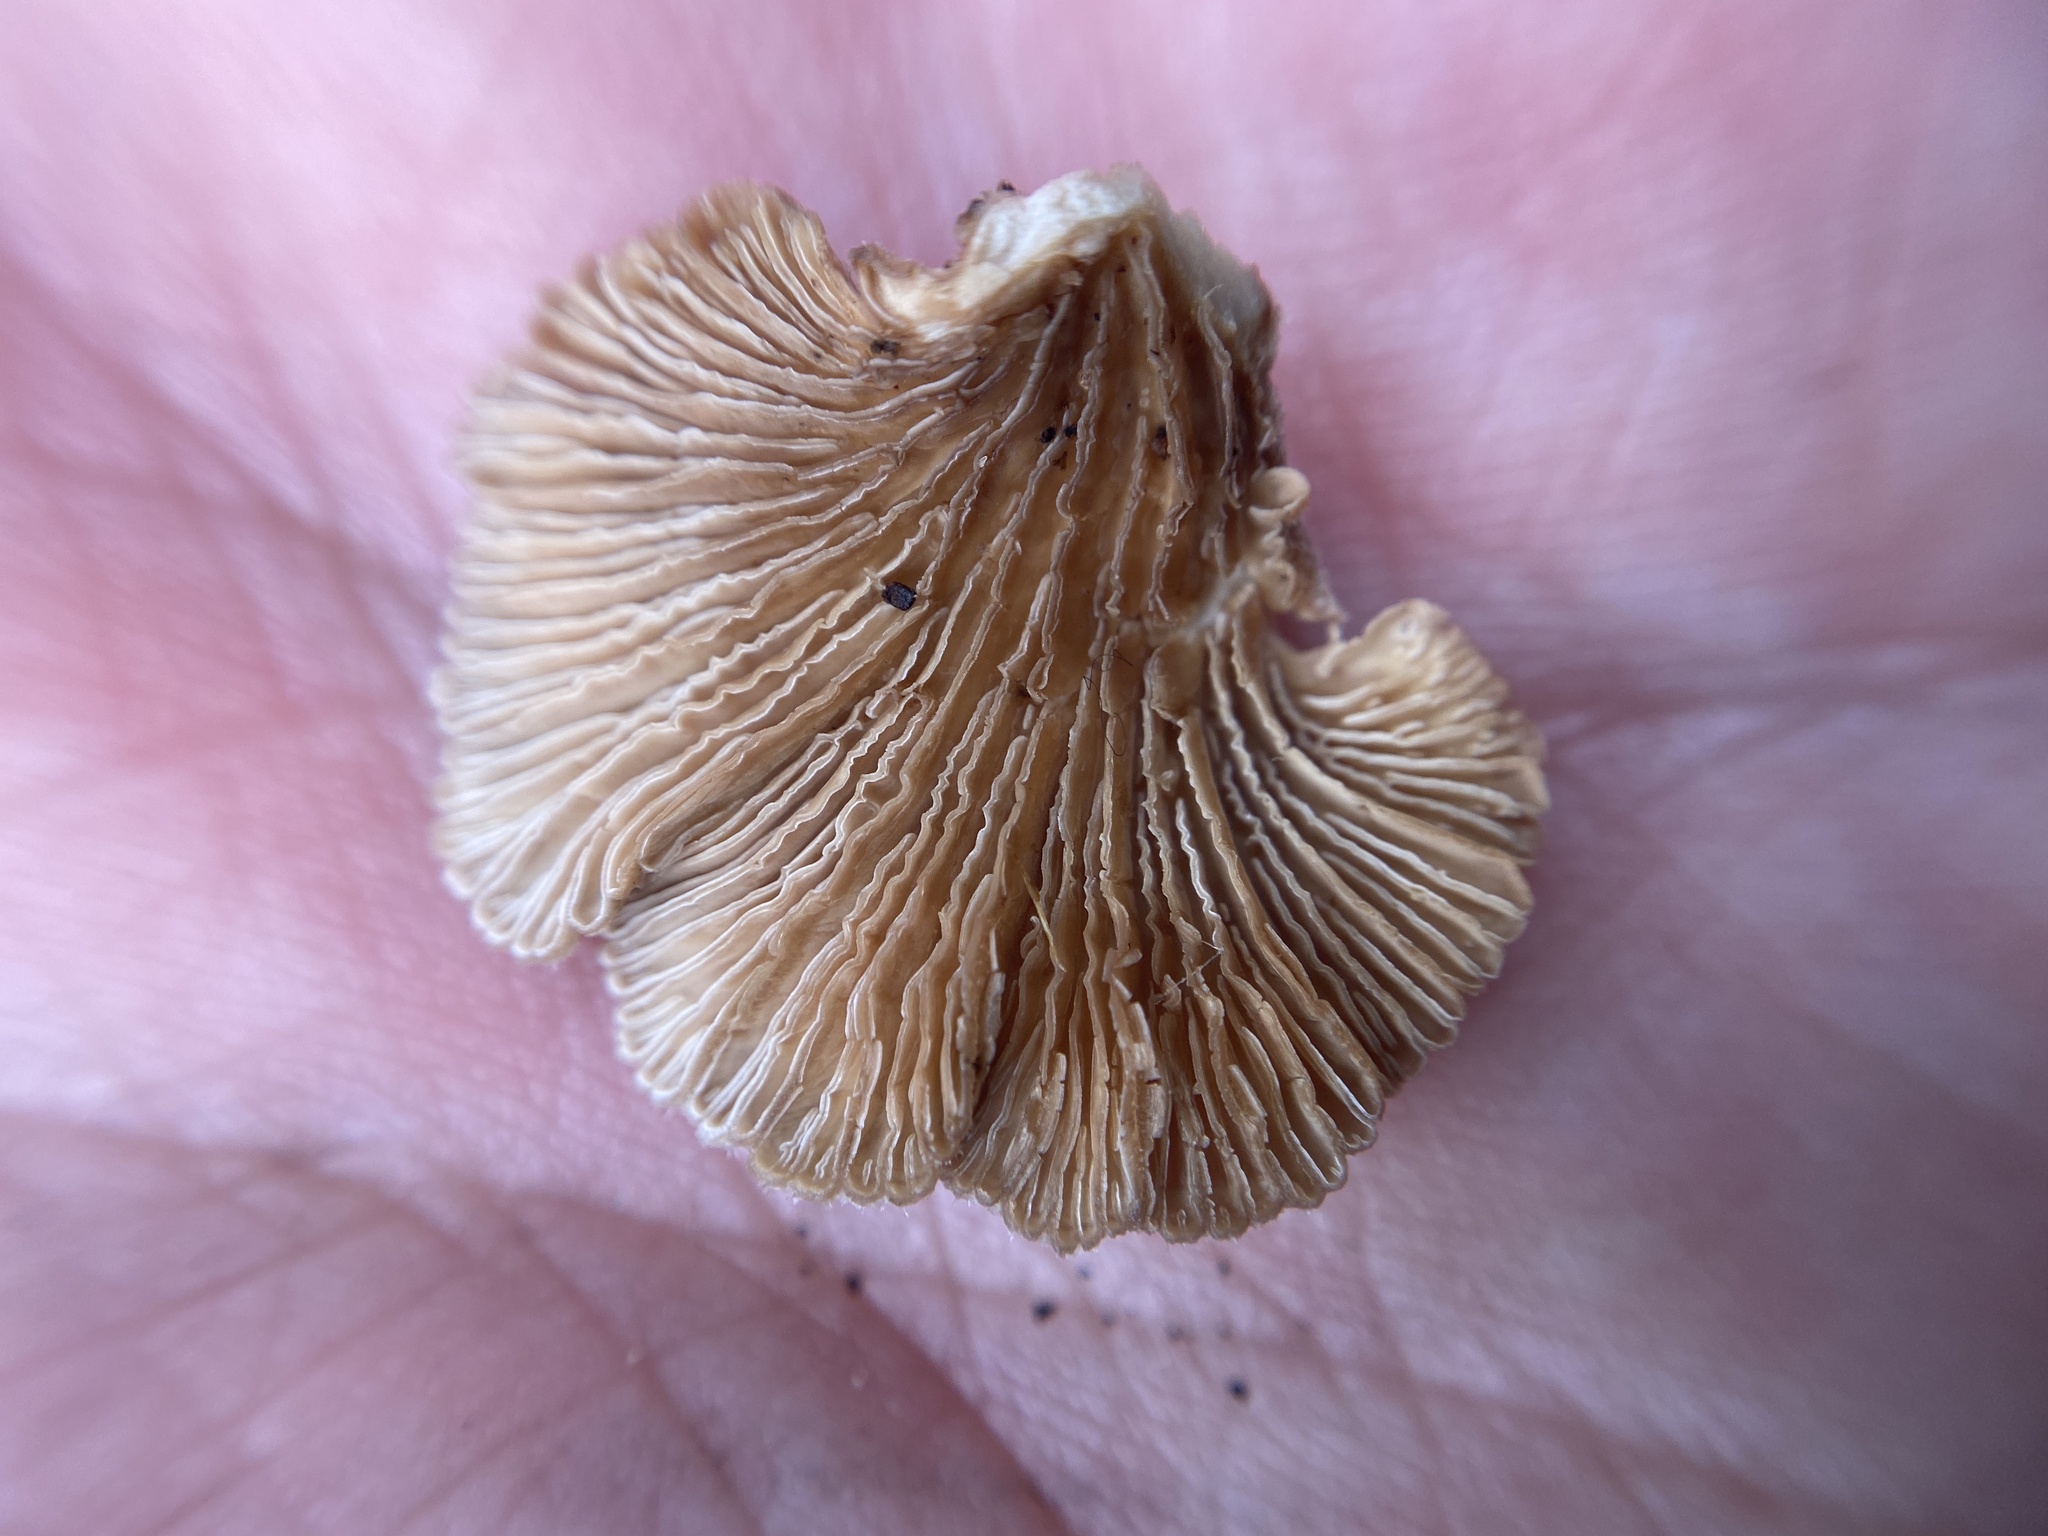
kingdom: Fungi
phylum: Basidiomycota
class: Agaricomycetes
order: Agaricales
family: Schizophyllaceae
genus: Schizophyllum
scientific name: Schizophyllum commune
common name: Common porecrust
